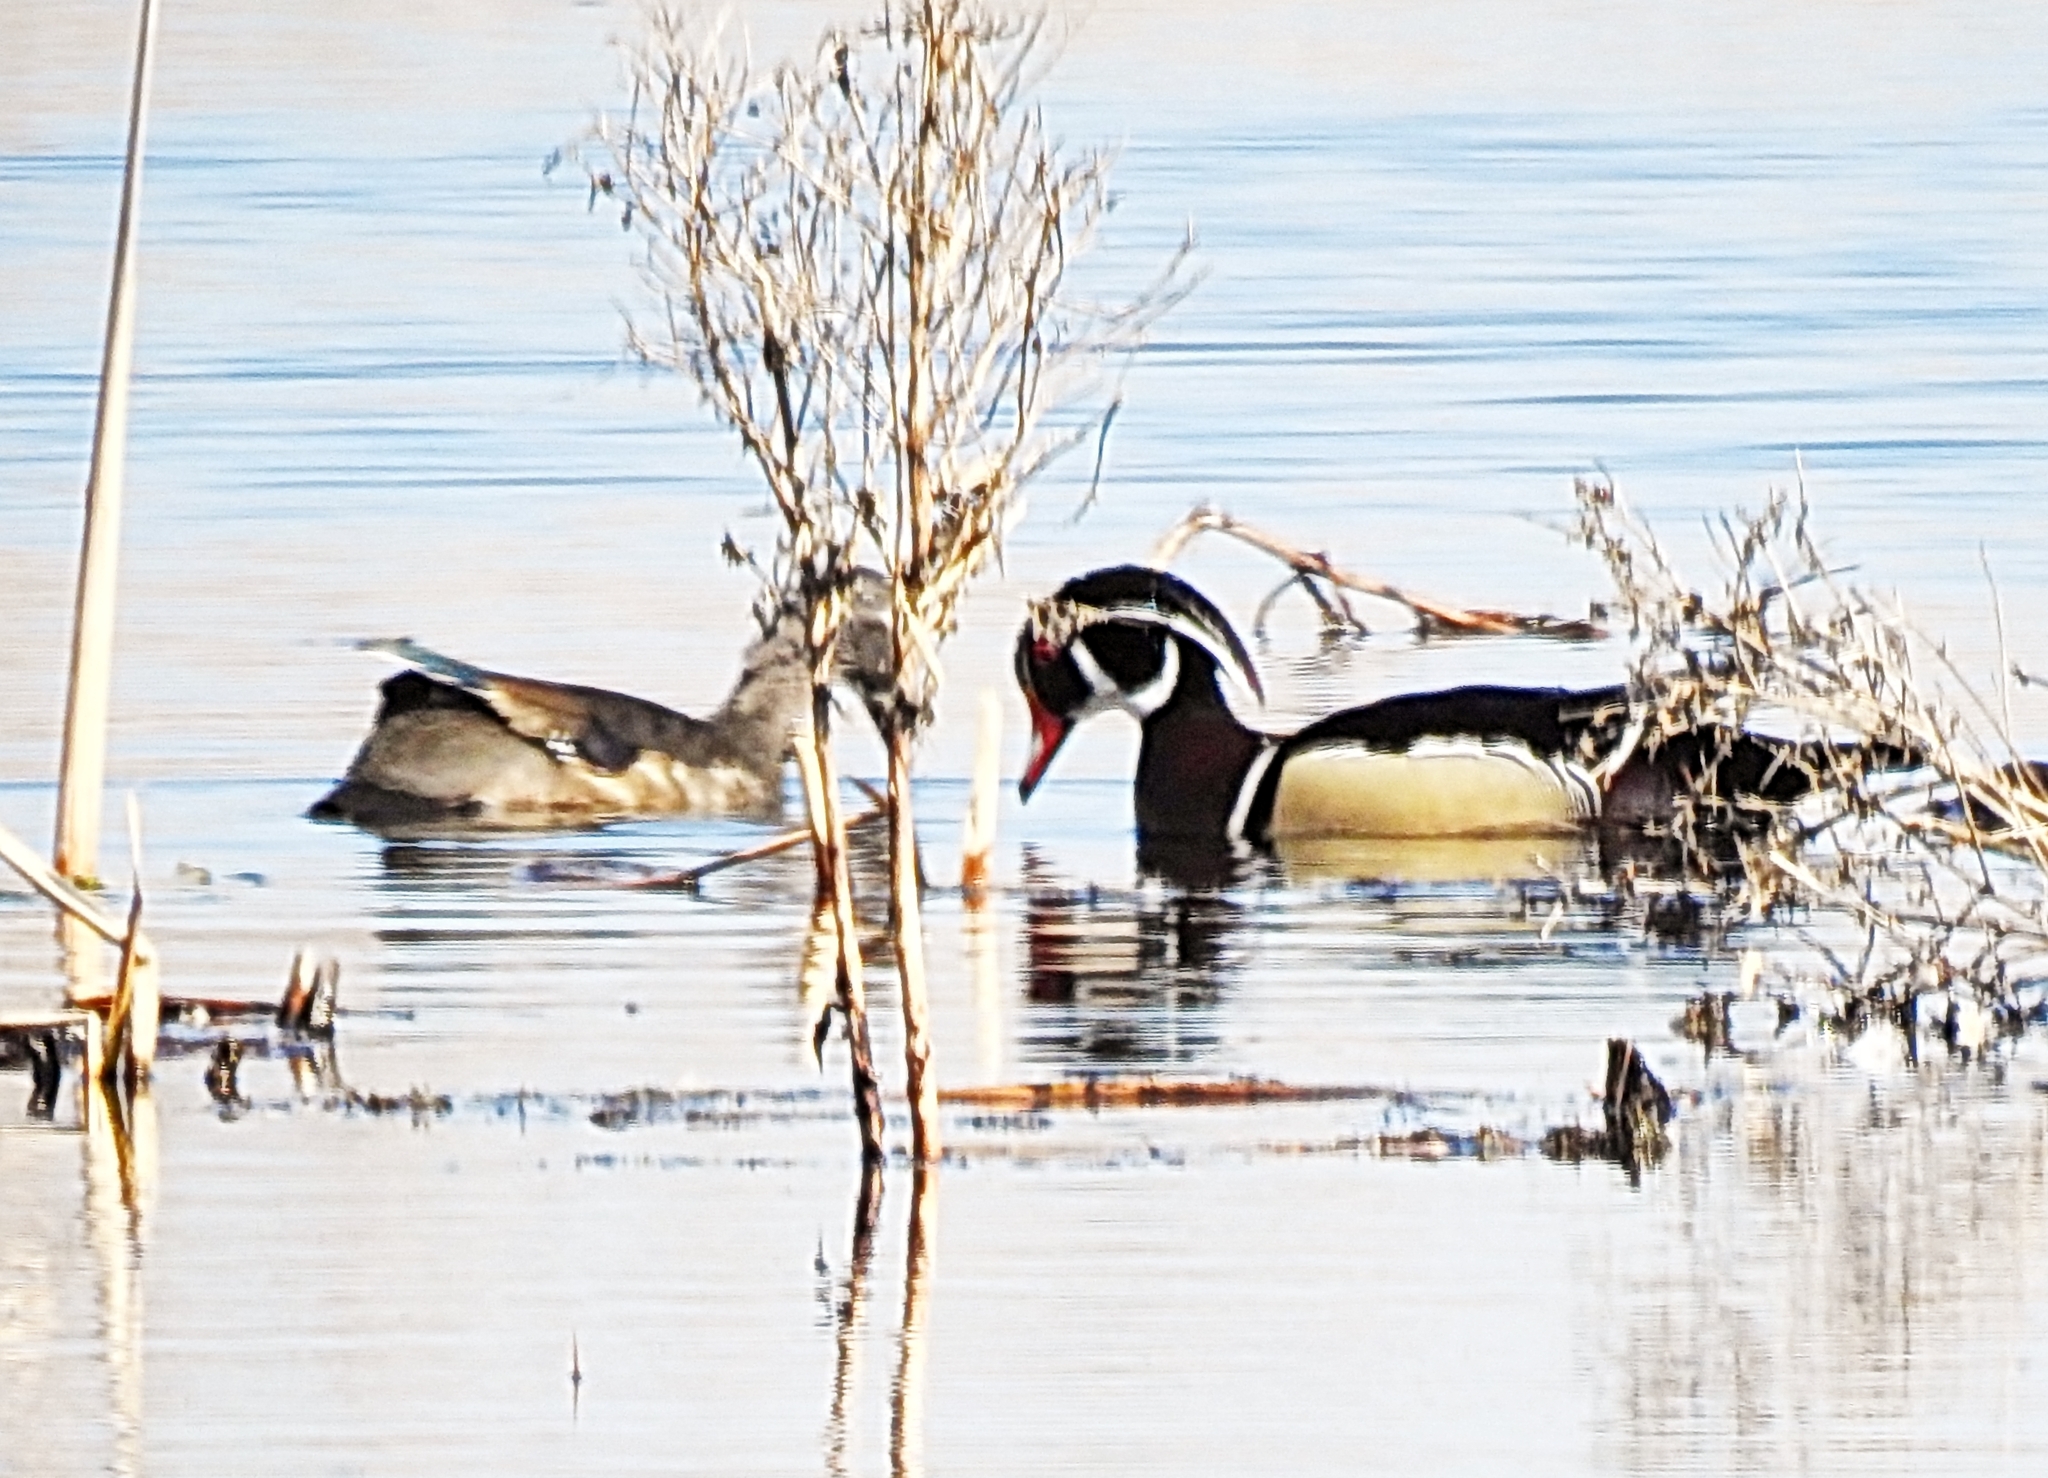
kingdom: Animalia
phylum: Chordata
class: Aves
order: Anseriformes
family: Anatidae
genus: Aix
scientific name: Aix sponsa
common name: Wood duck
